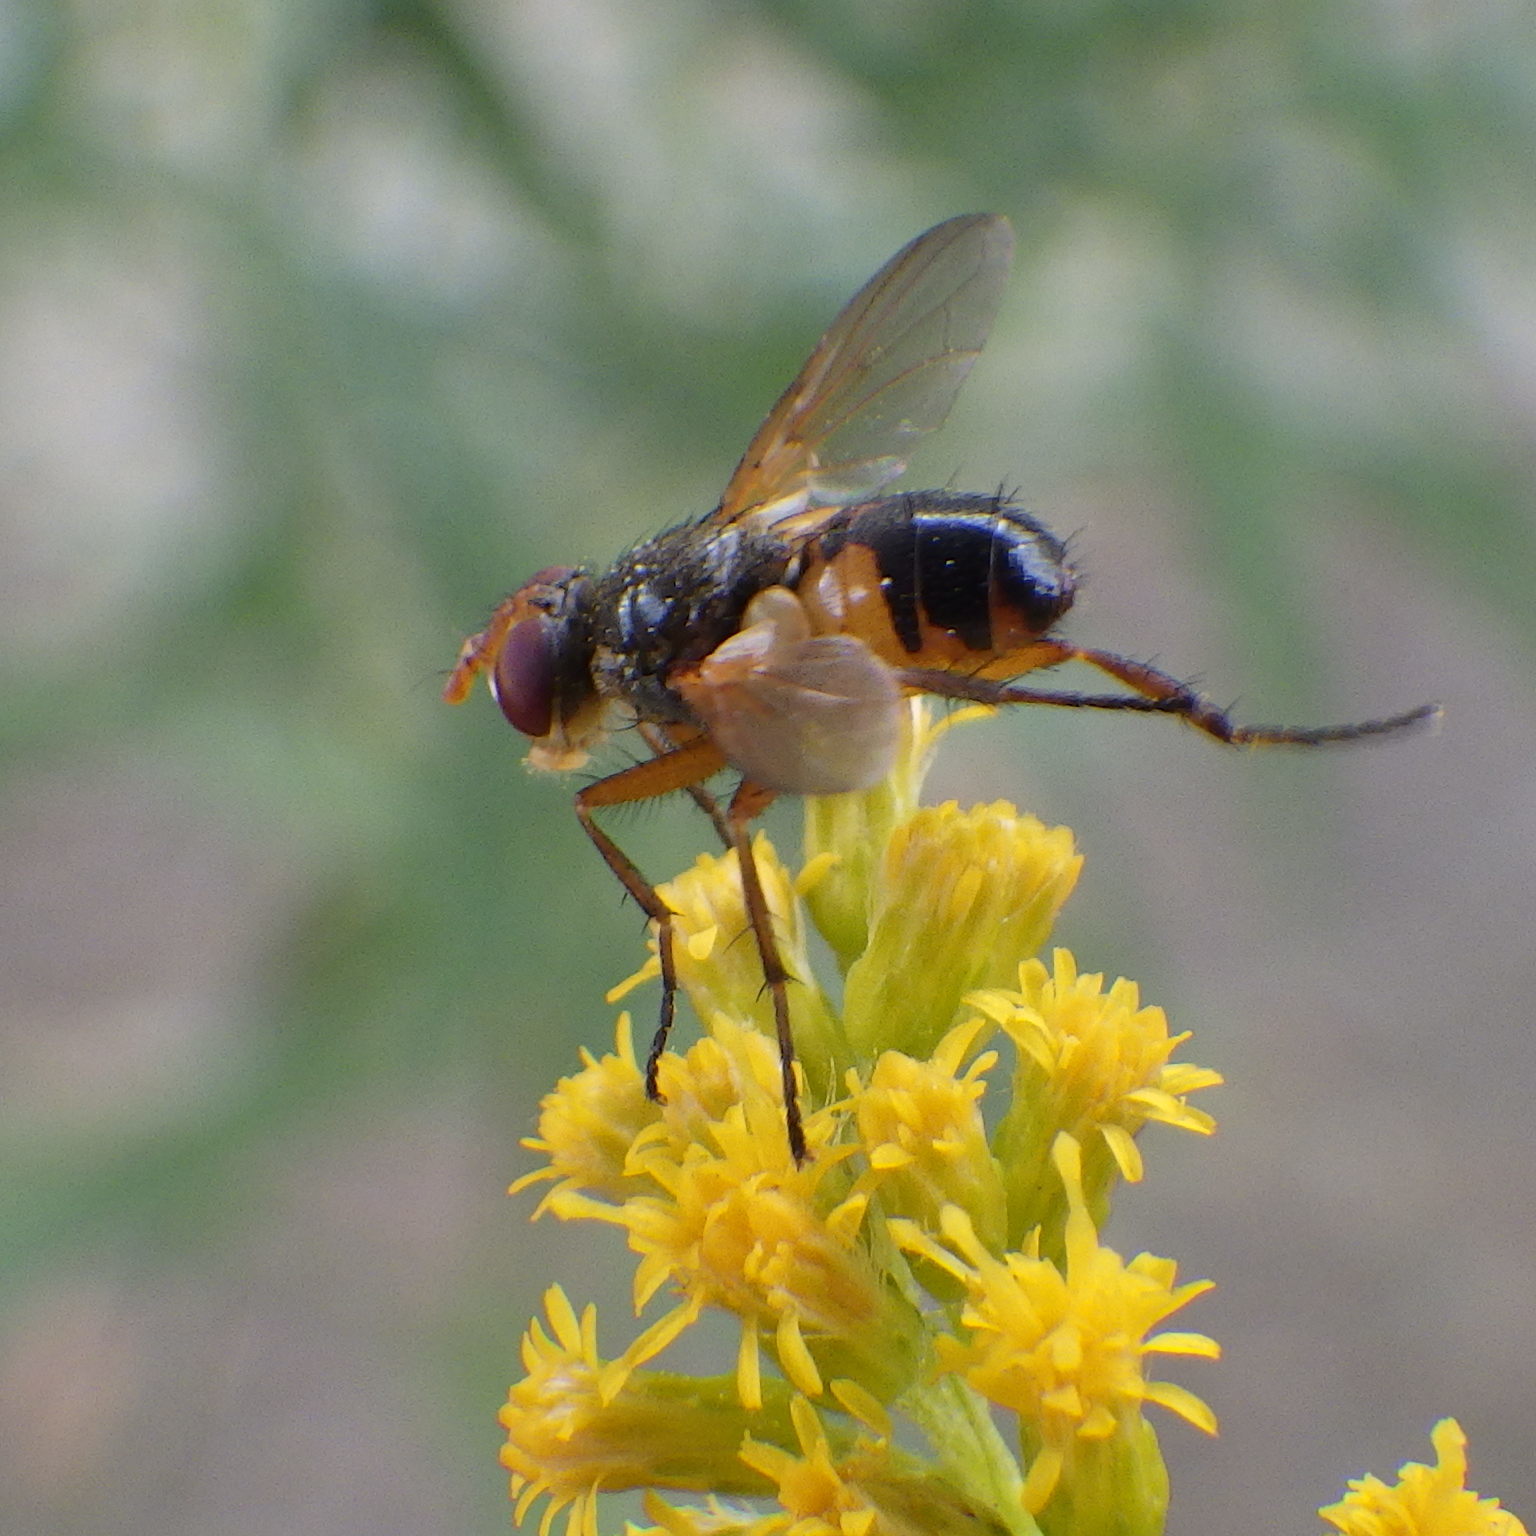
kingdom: Animalia
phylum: Arthropoda
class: Insecta
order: Diptera
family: Tachinidae
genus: Euclytia
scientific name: Euclytia flava
